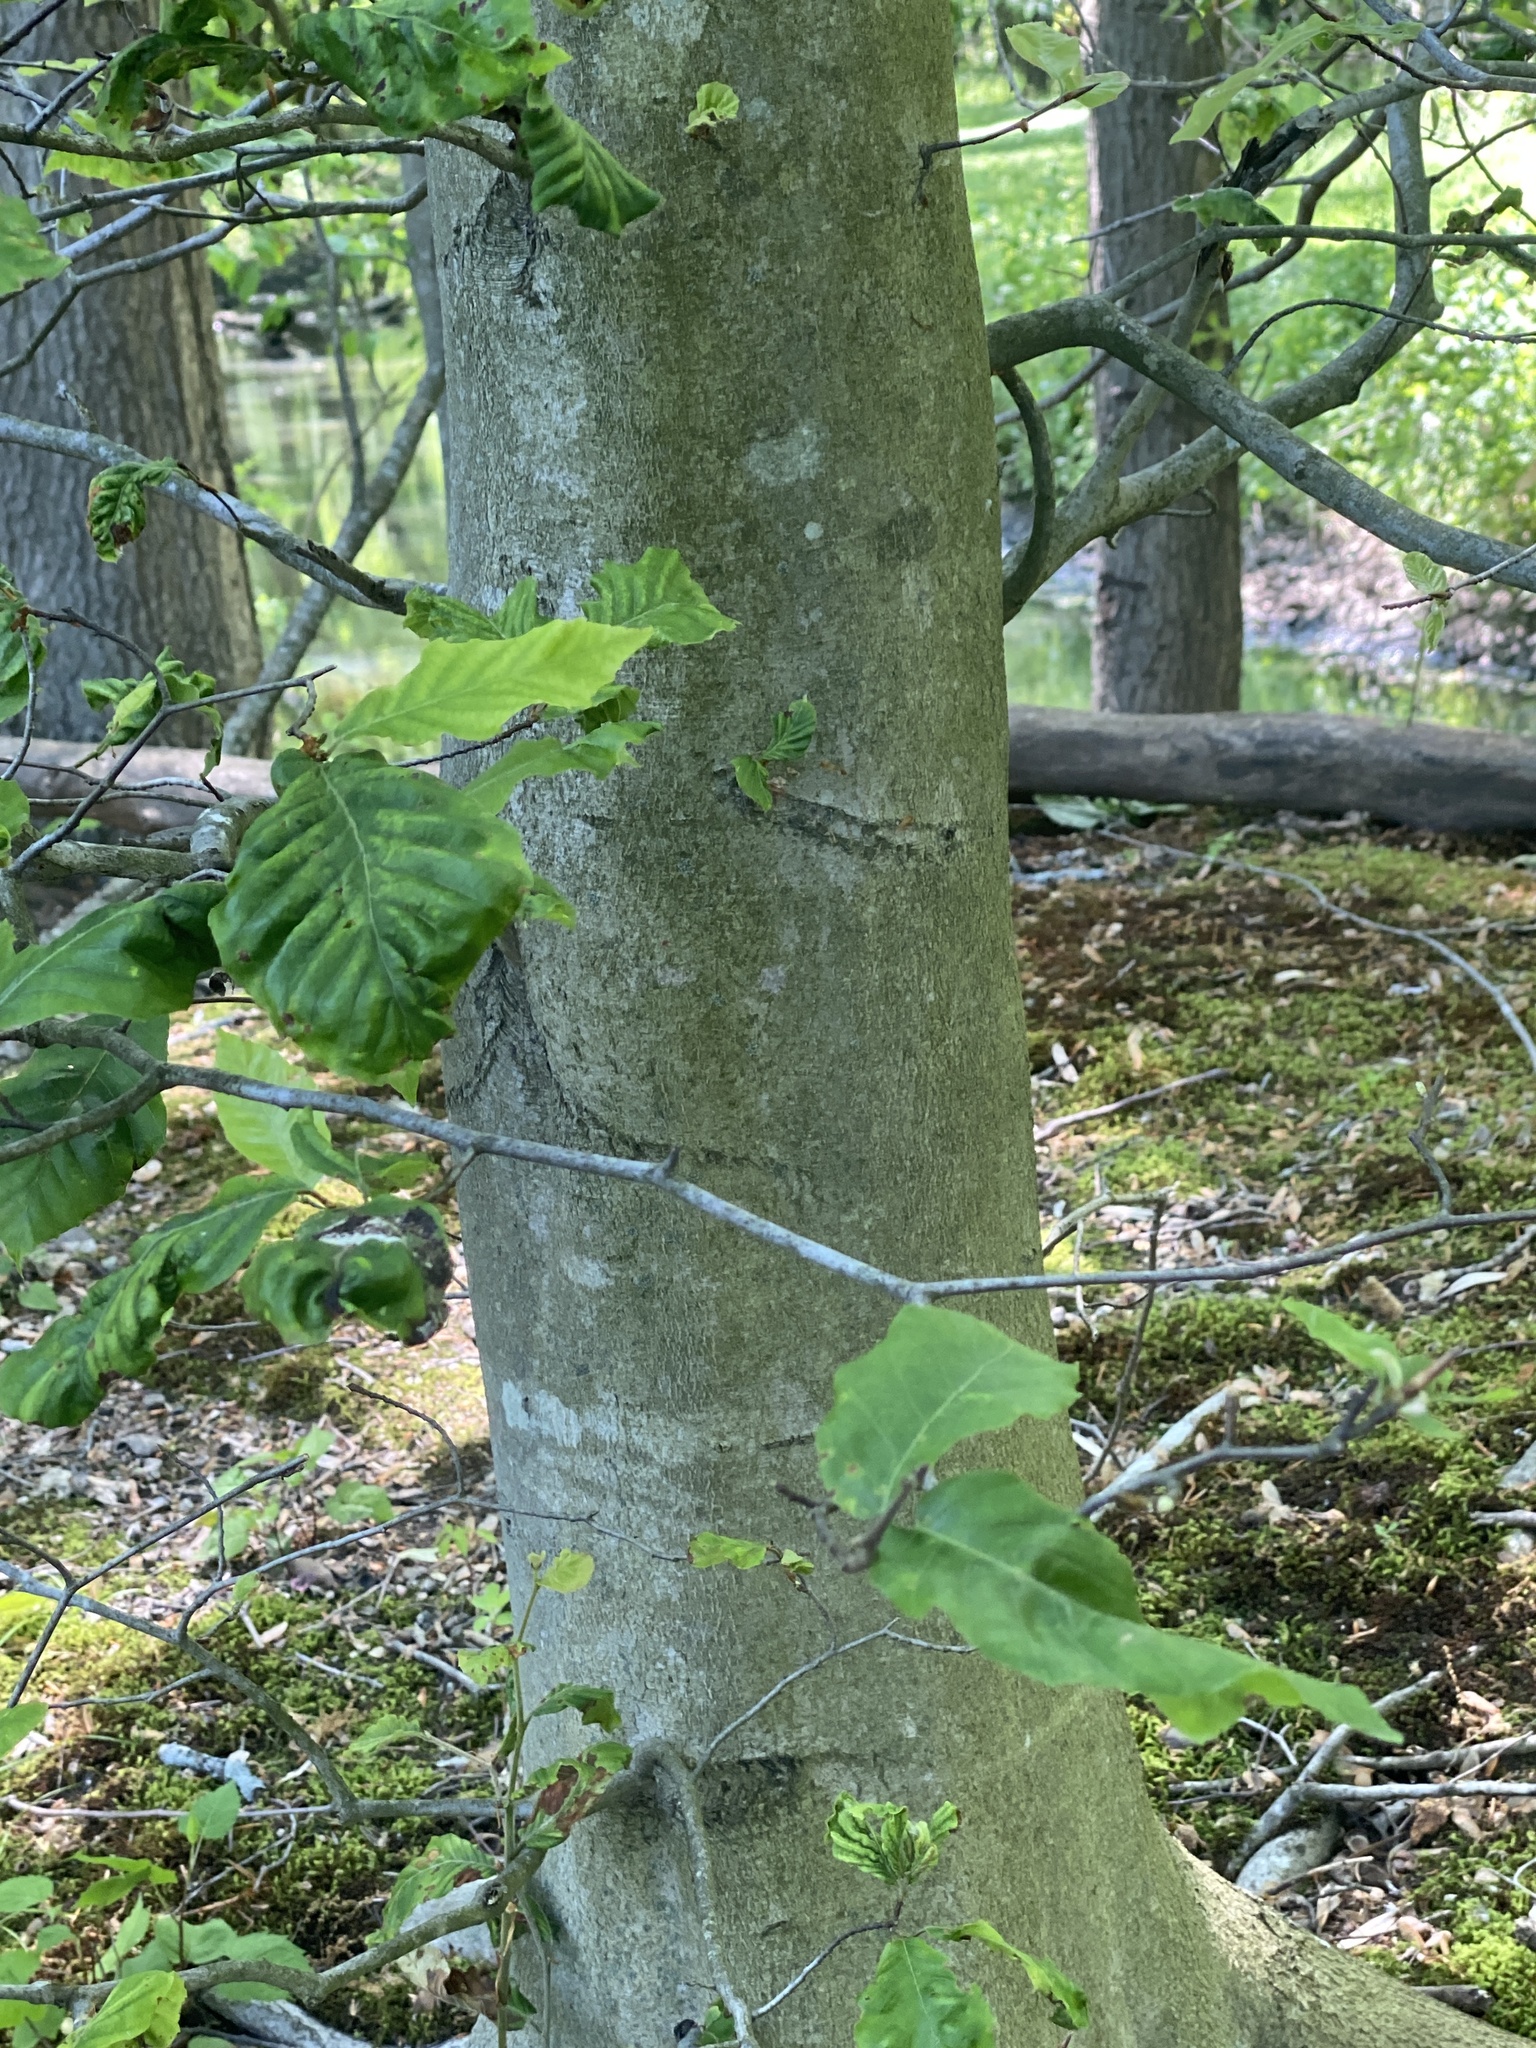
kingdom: Plantae
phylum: Tracheophyta
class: Magnoliopsida
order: Fagales
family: Fagaceae
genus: Fagus
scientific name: Fagus grandifolia
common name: American beech
